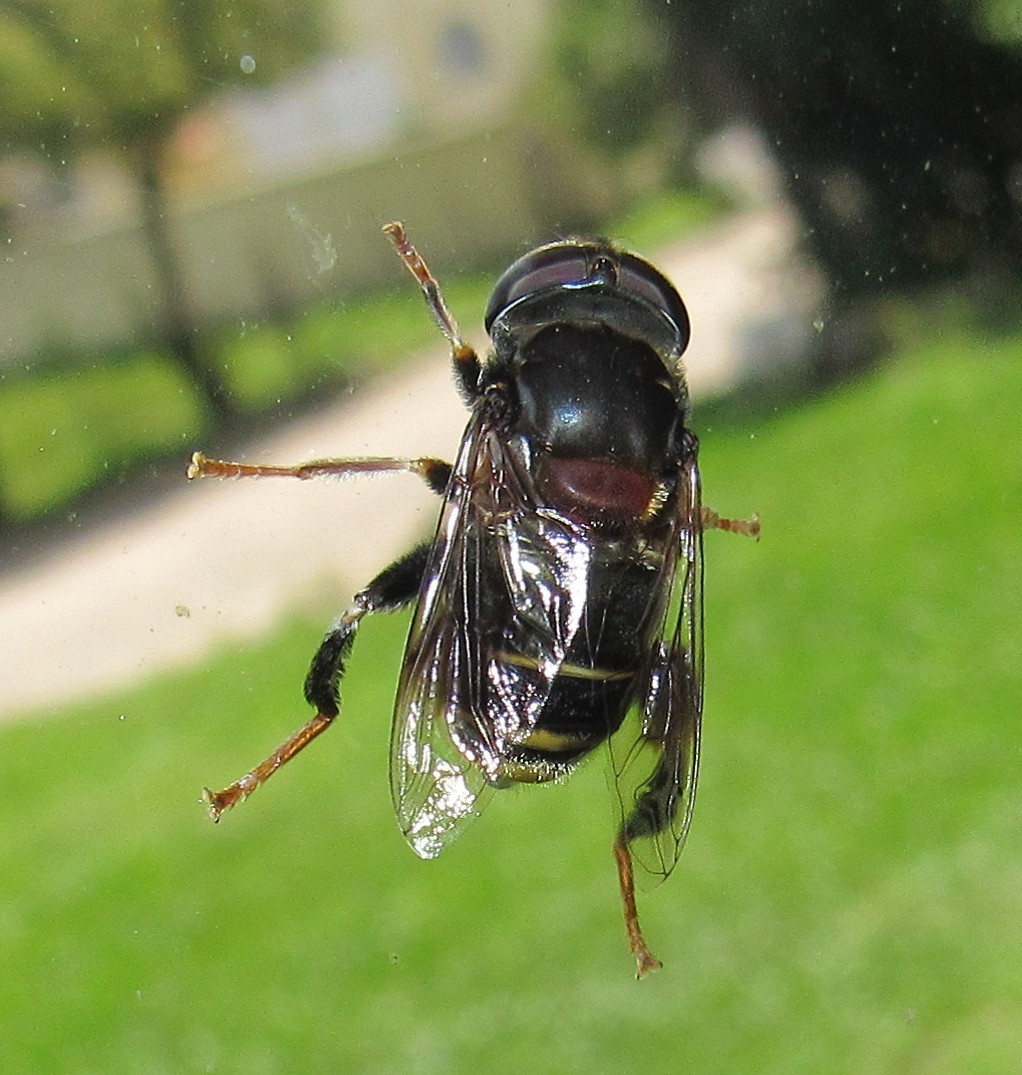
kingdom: Animalia
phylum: Arthropoda
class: Insecta
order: Diptera
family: Syrphidae
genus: Palpada
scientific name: Palpada pygolampa
